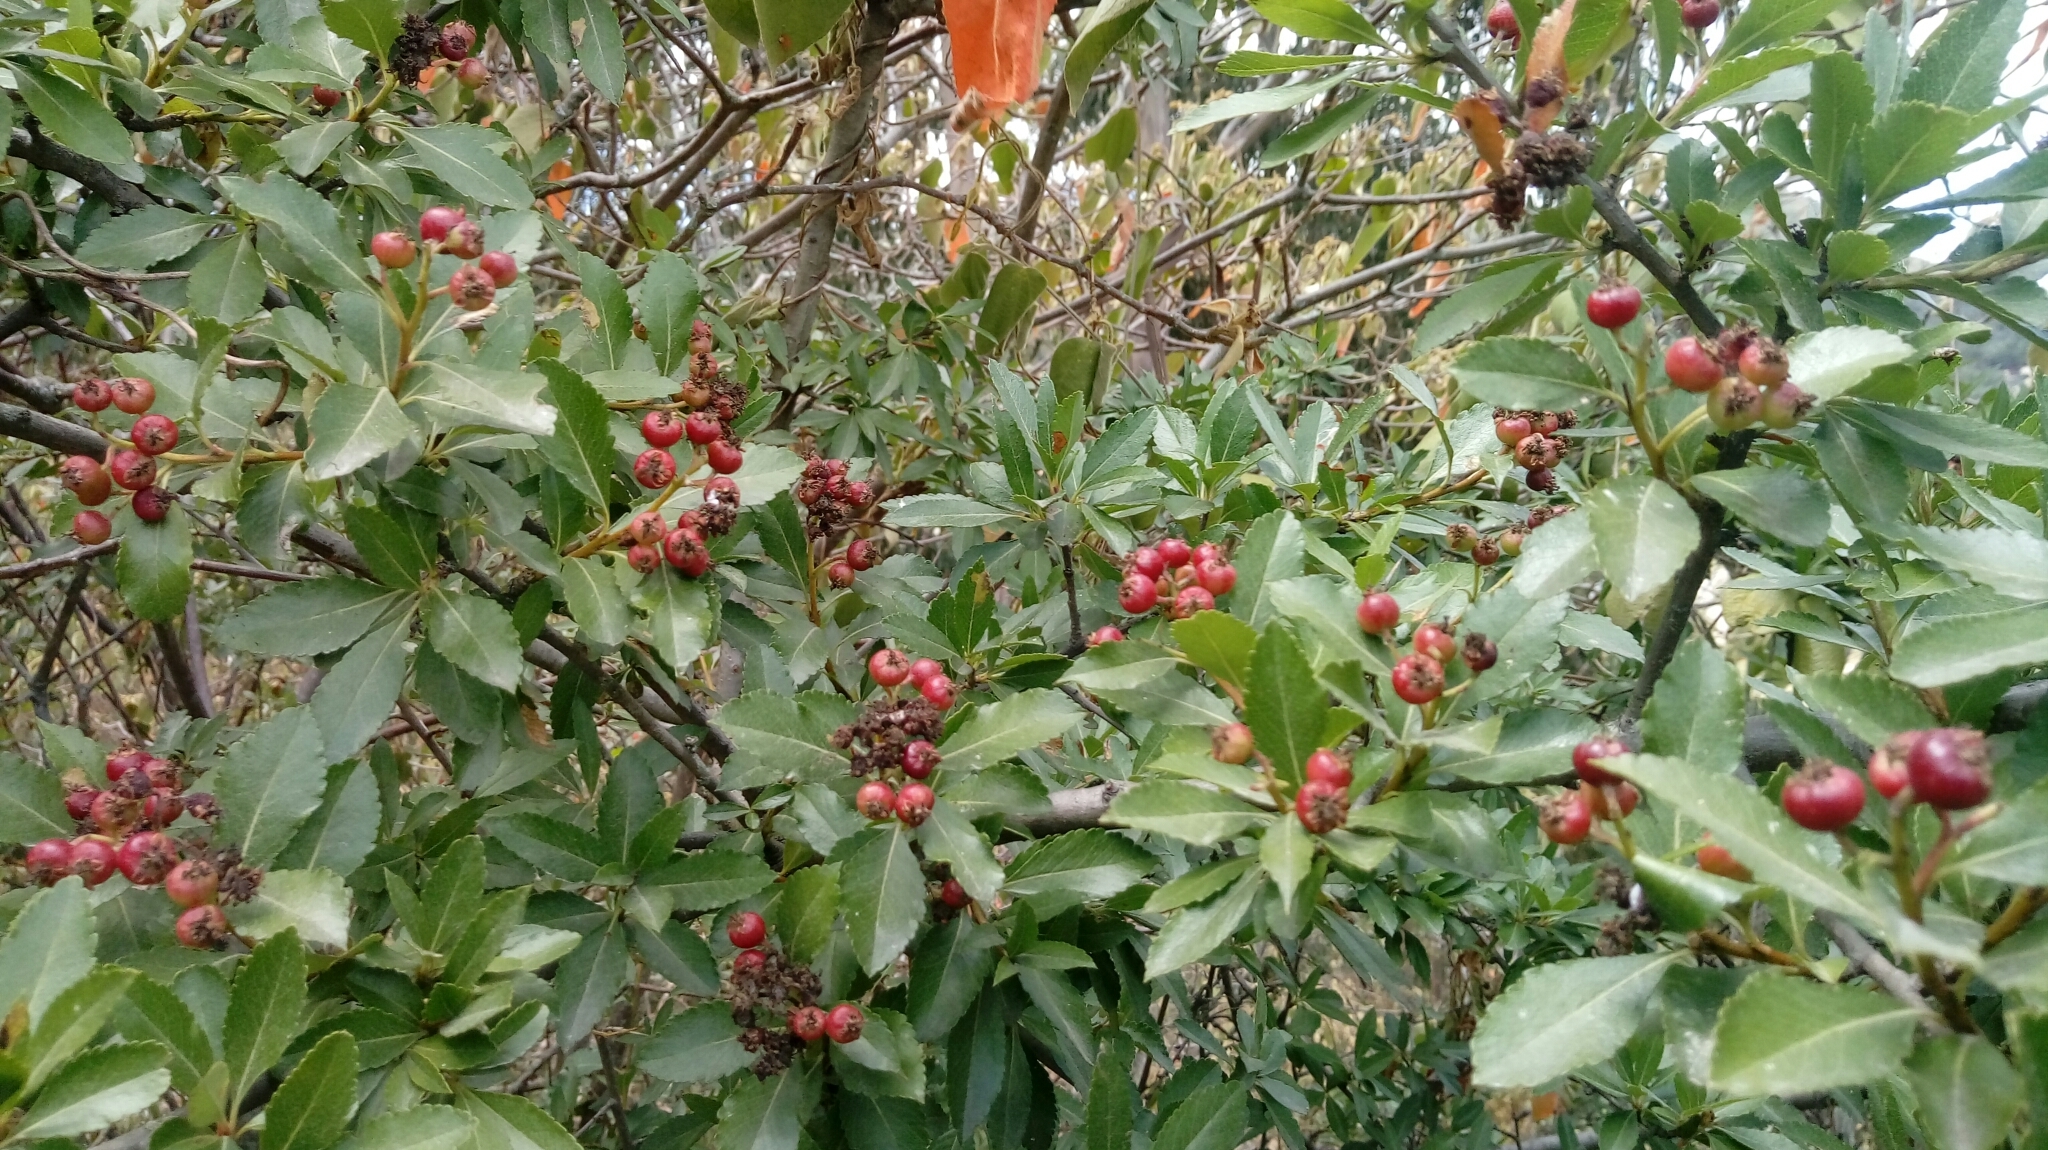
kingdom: Plantae
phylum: Tracheophyta
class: Magnoliopsida
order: Rosales
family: Rosaceae
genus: Hesperomeles
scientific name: Hesperomeles obtusifolia
